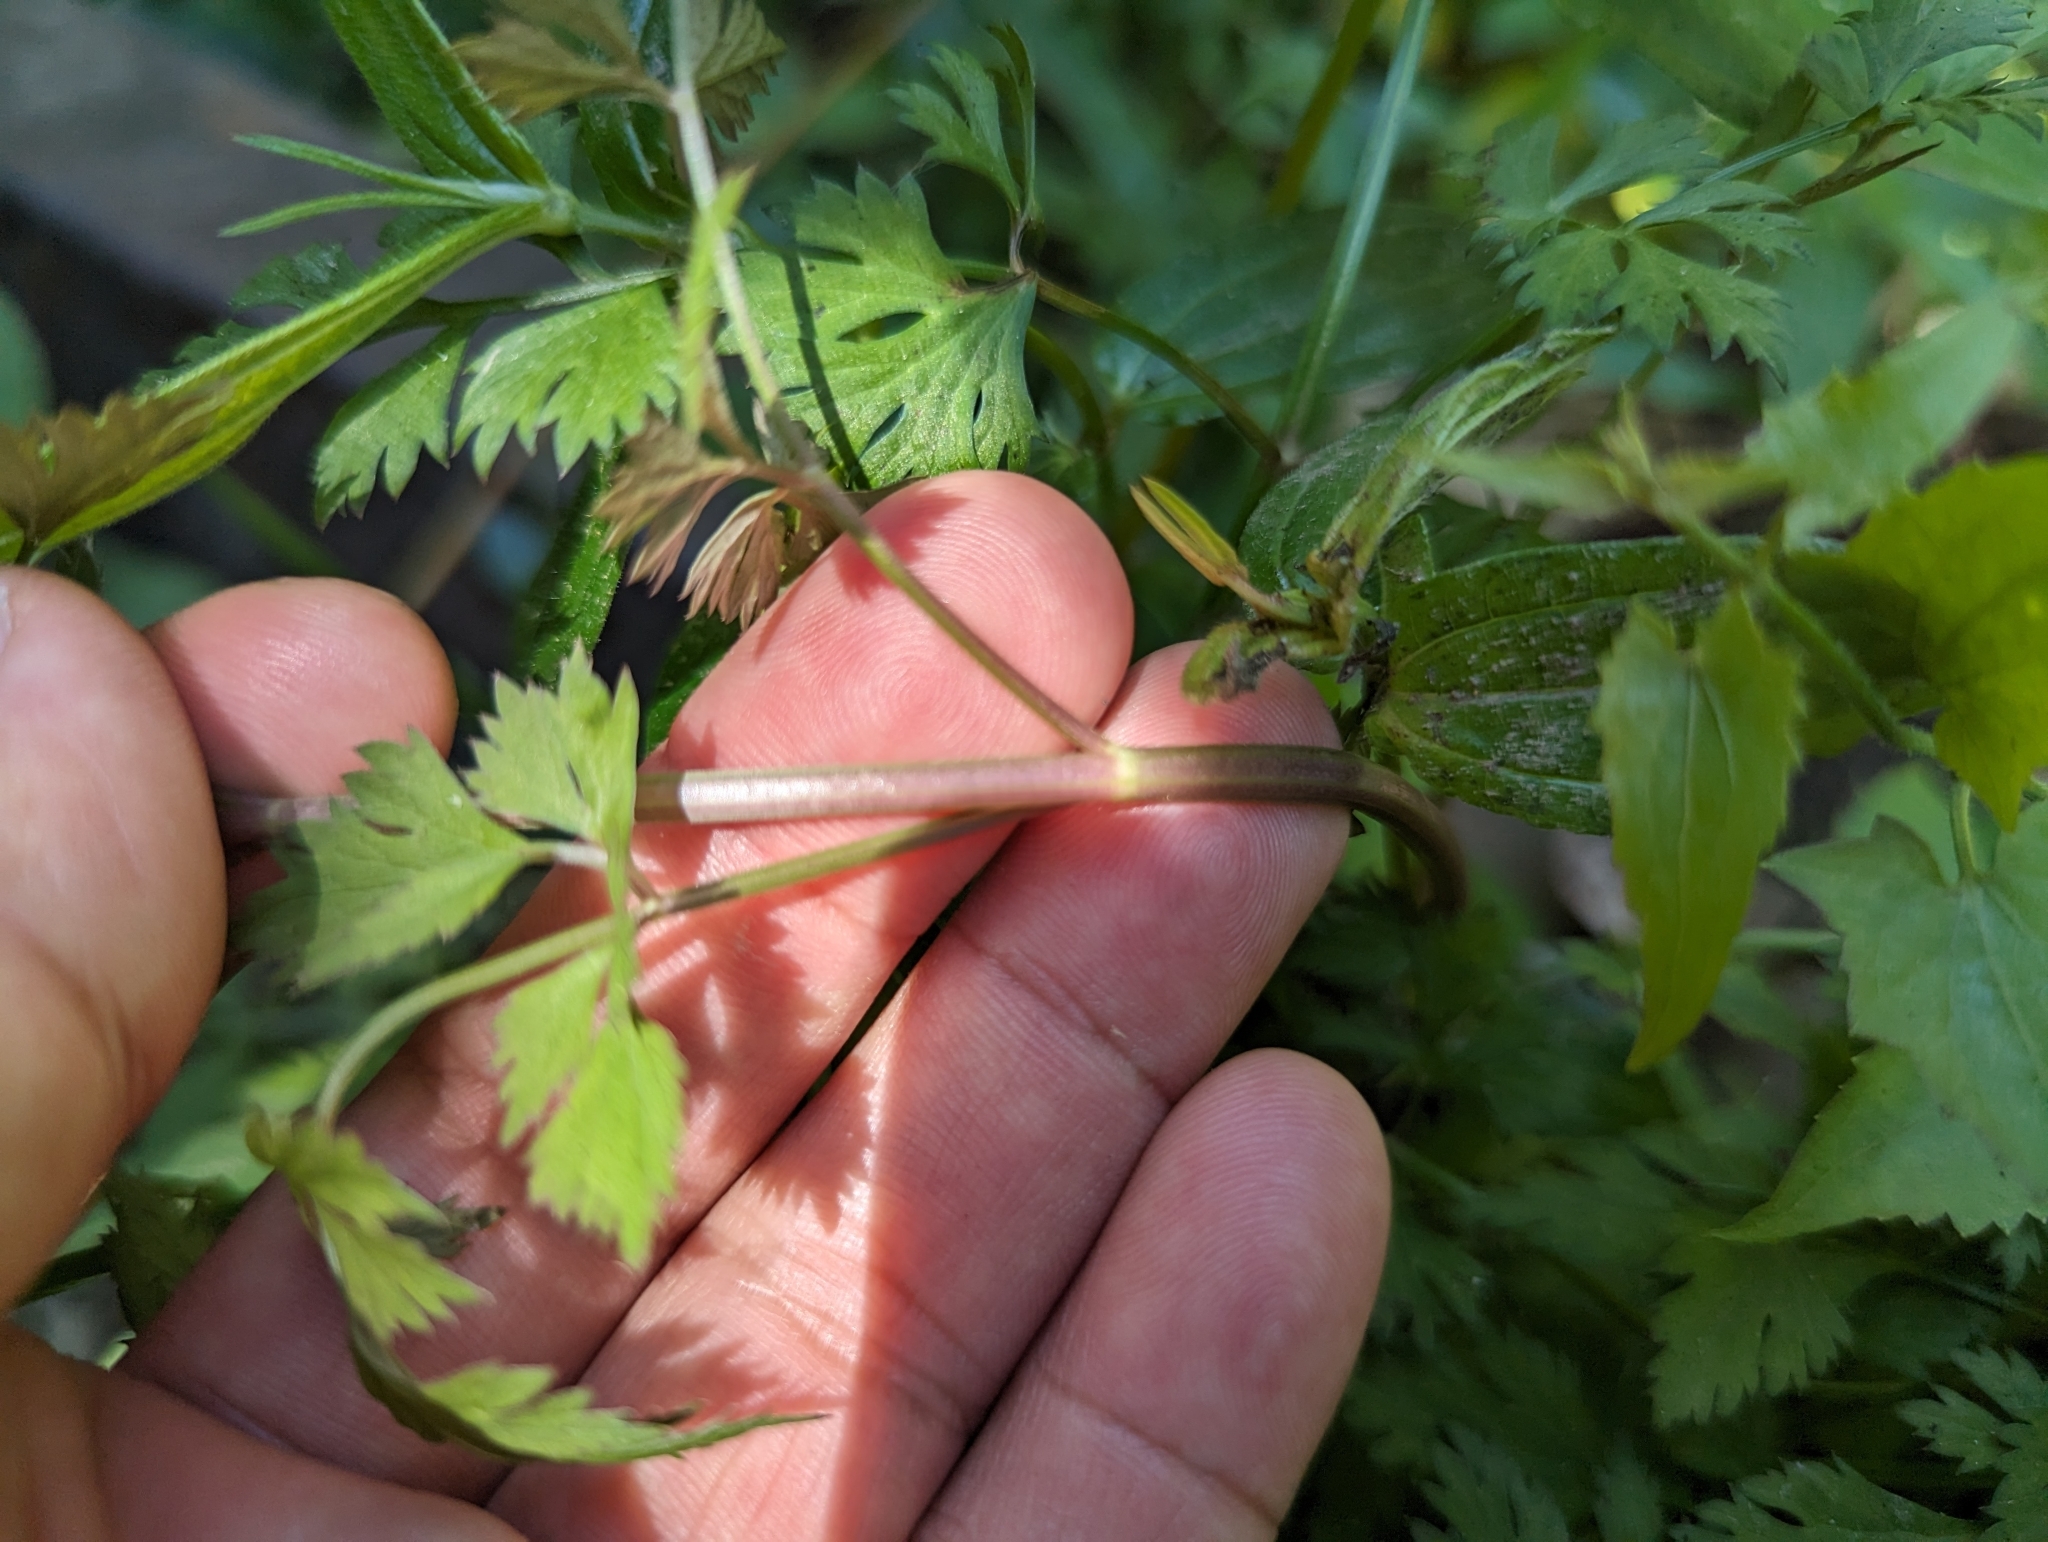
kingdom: Plantae
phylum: Tracheophyta
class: Magnoliopsida
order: Apiales
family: Apiaceae
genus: Oenanthe
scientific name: Oenanthe javanica
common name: Java water-dropwort
